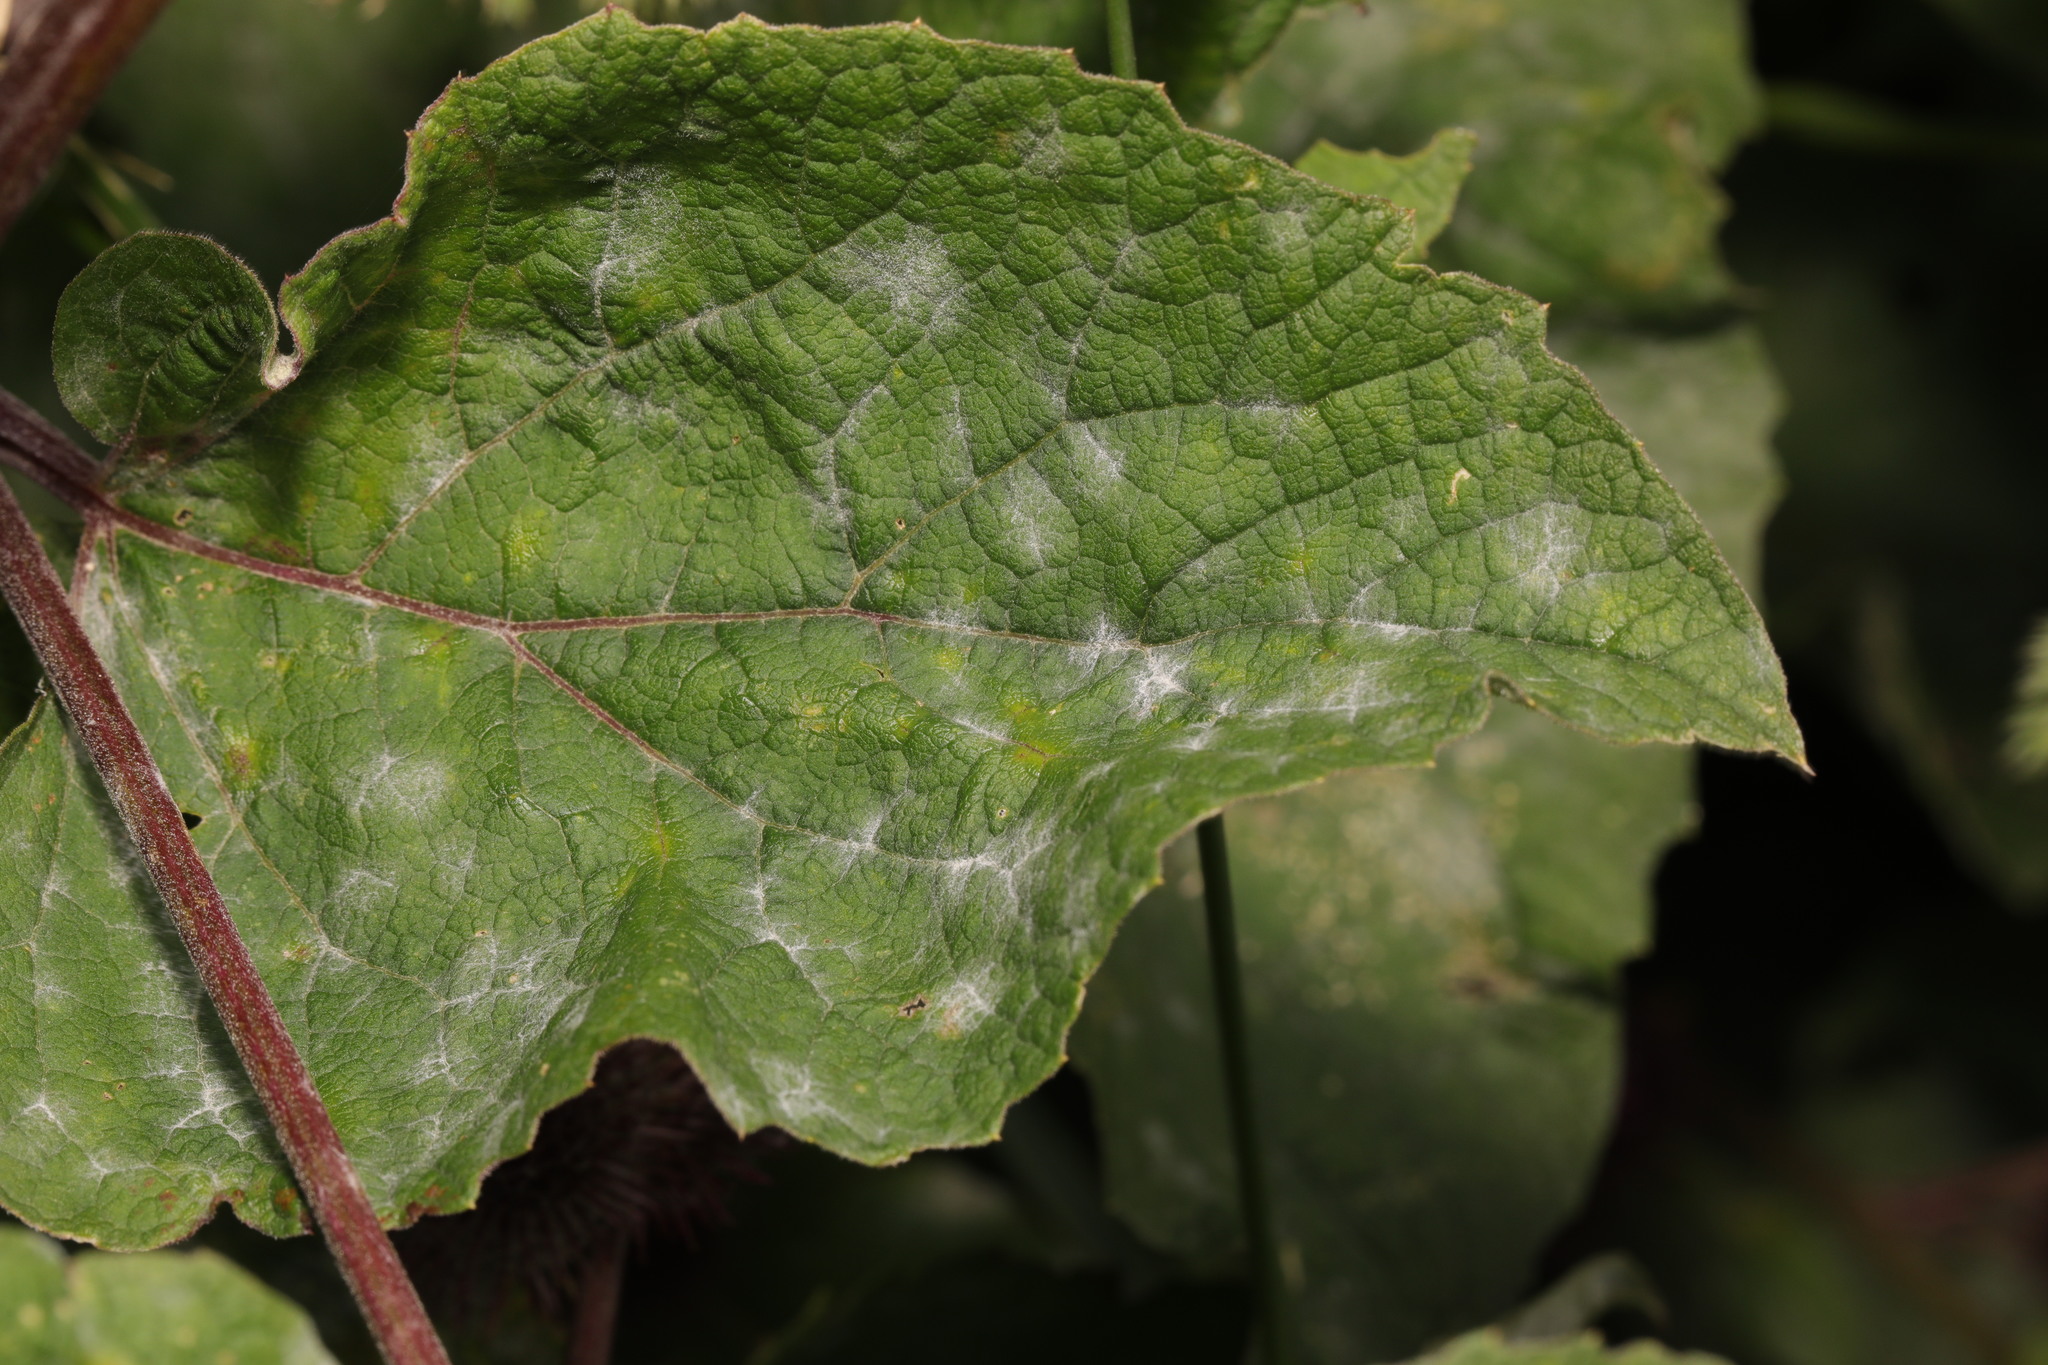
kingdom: Fungi
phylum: Ascomycota
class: Leotiomycetes
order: Helotiales
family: Erysiphaceae
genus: Golovinomyces
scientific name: Golovinomyces depressus
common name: Burdock mildew
